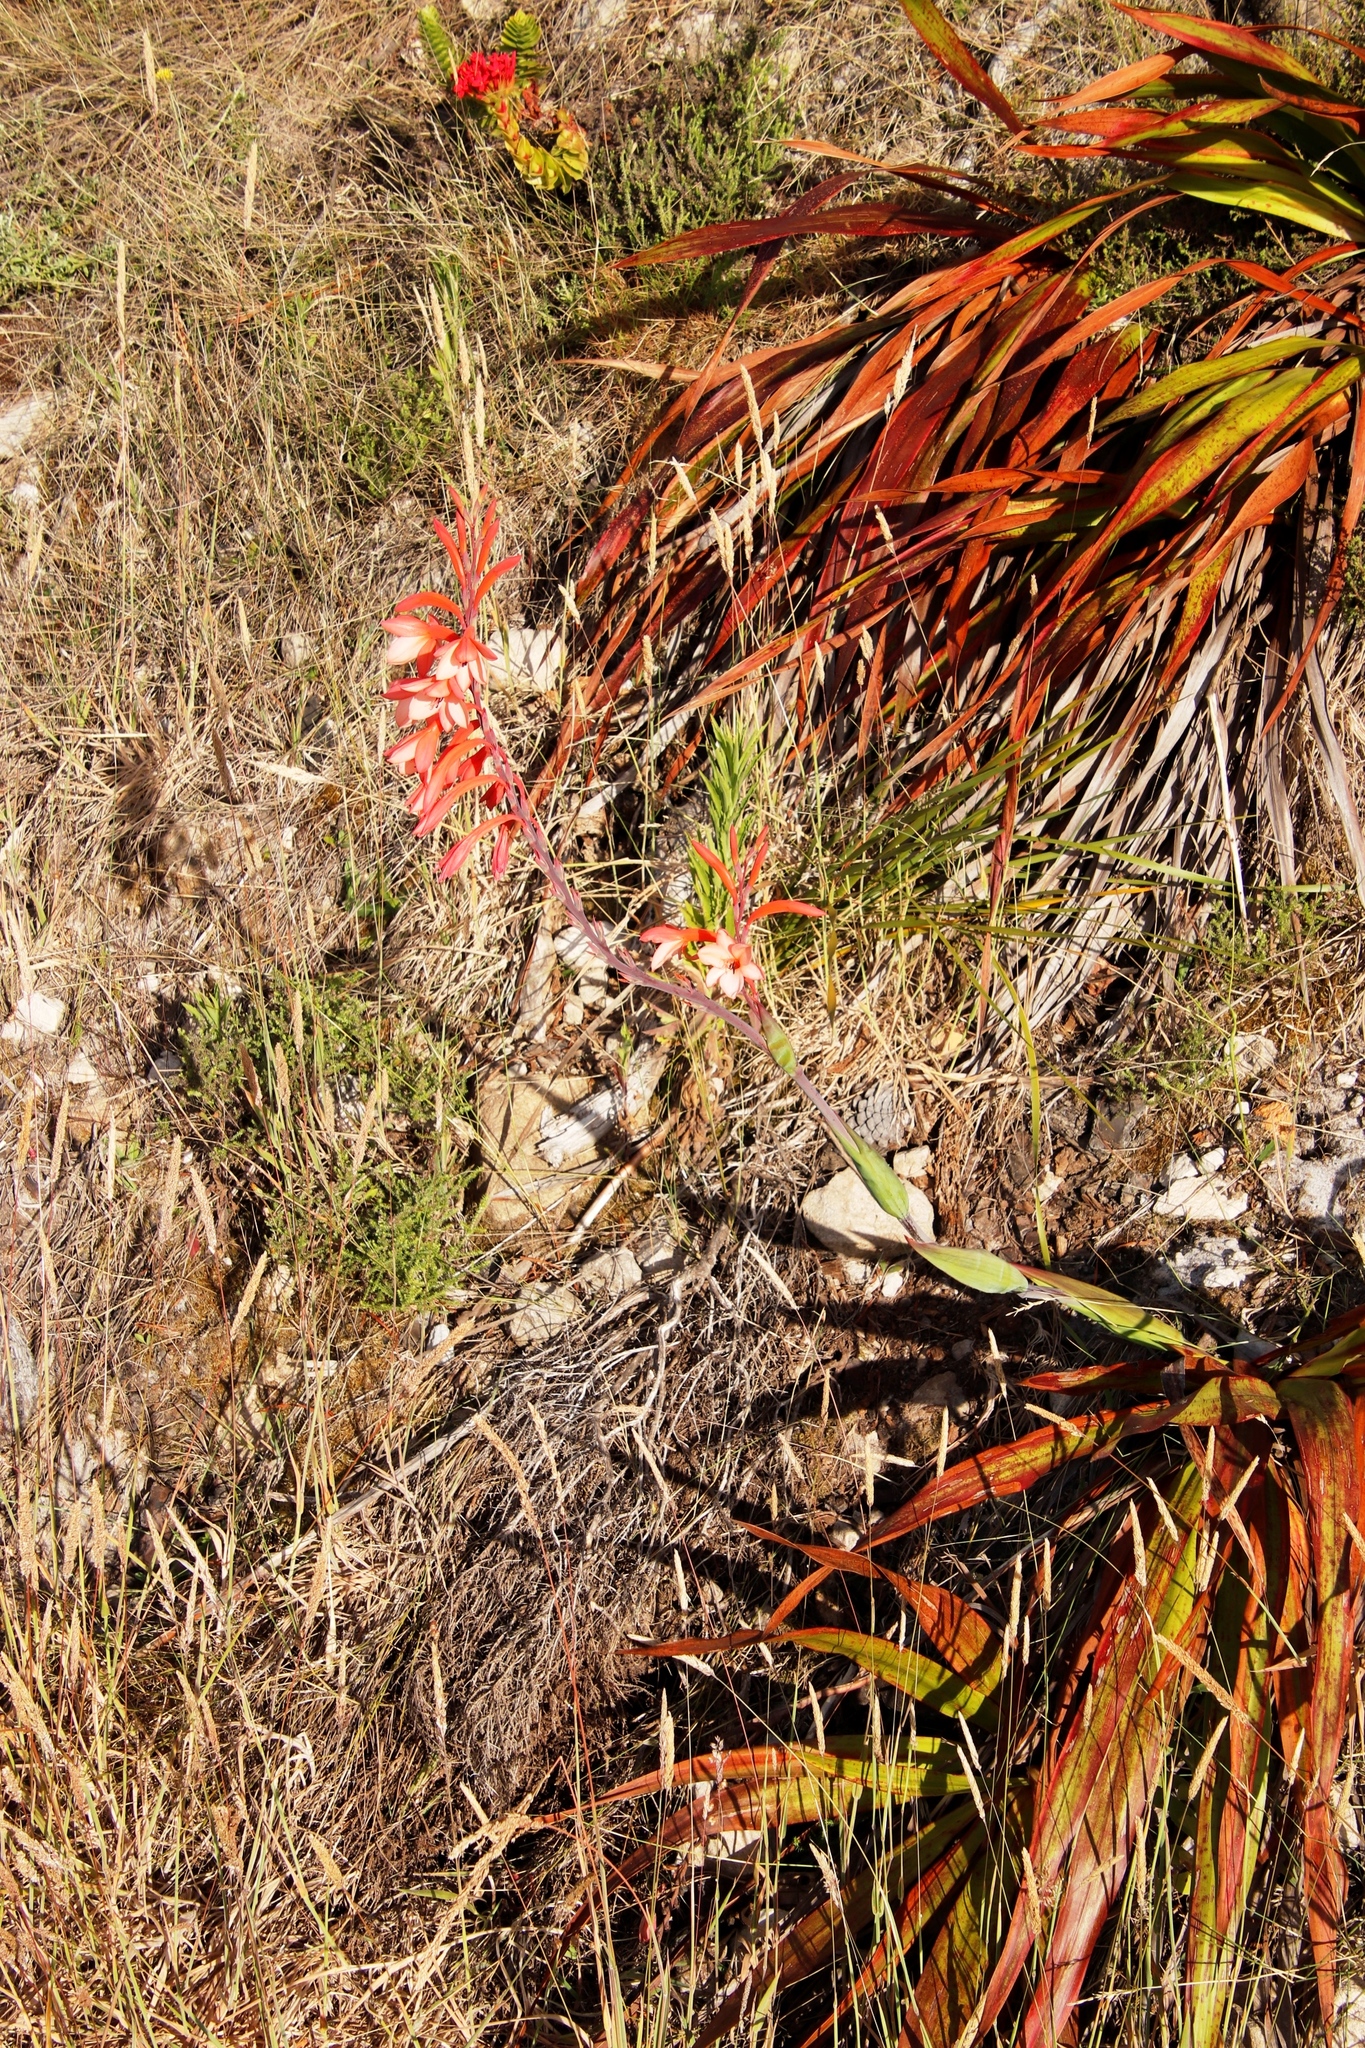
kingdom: Plantae
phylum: Tracheophyta
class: Liliopsida
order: Asparagales
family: Iridaceae
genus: Watsonia
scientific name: Watsonia tabularis
